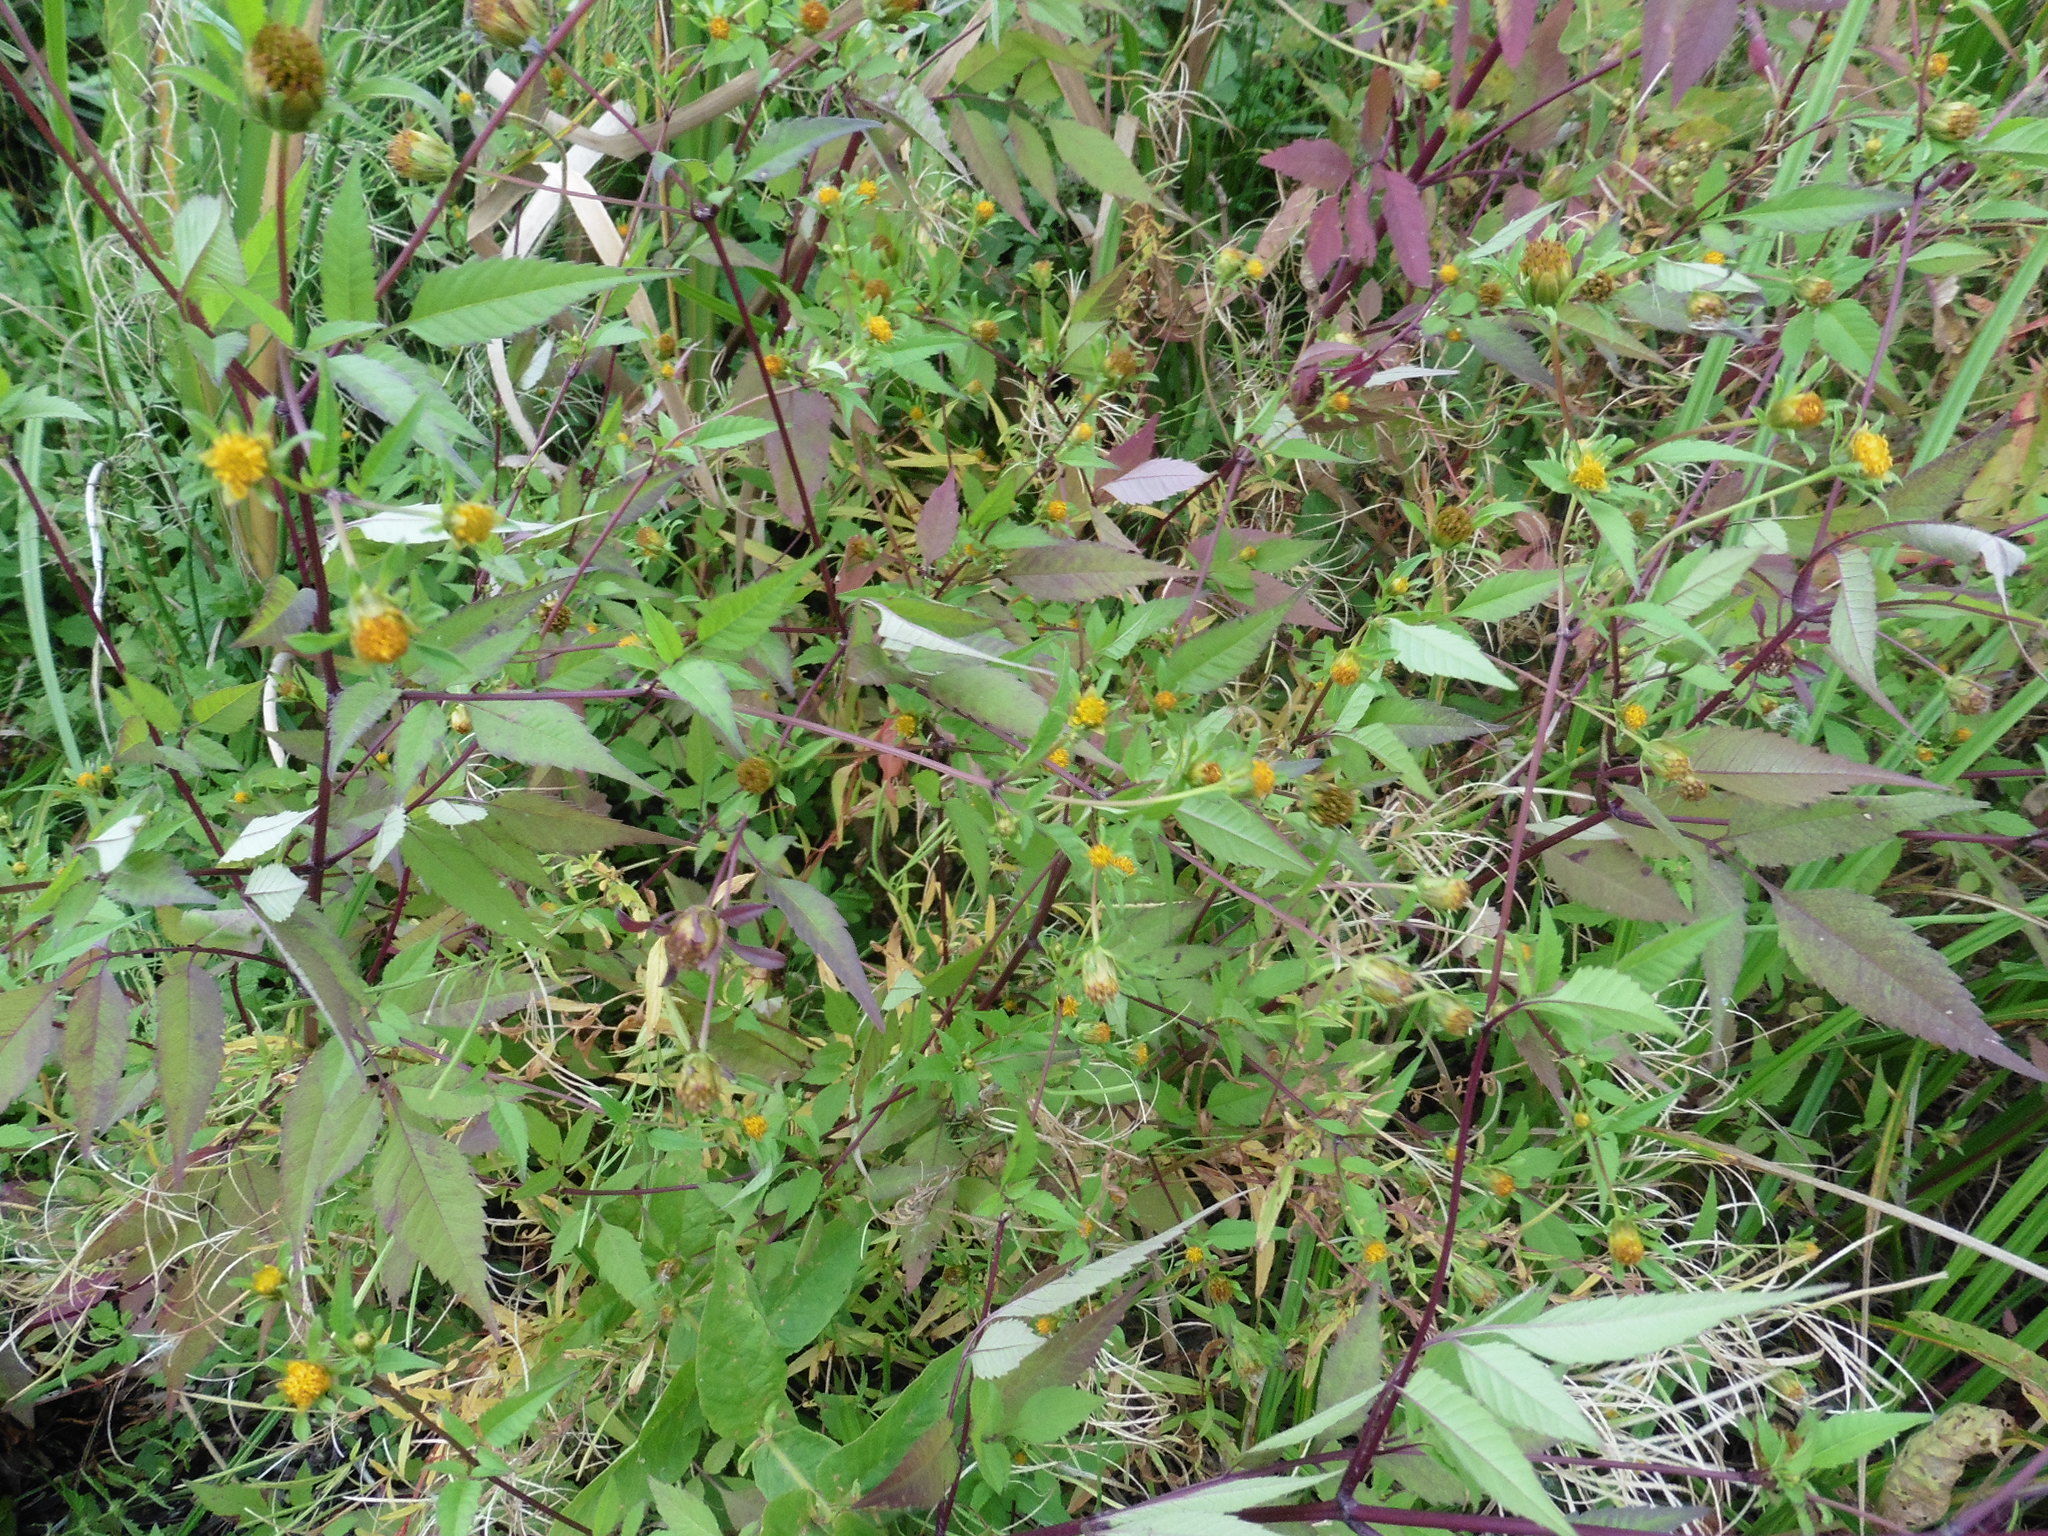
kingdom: Plantae
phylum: Tracheophyta
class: Magnoliopsida
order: Asterales
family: Asteraceae
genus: Bidens
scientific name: Bidens frondosa
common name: Beggarticks
